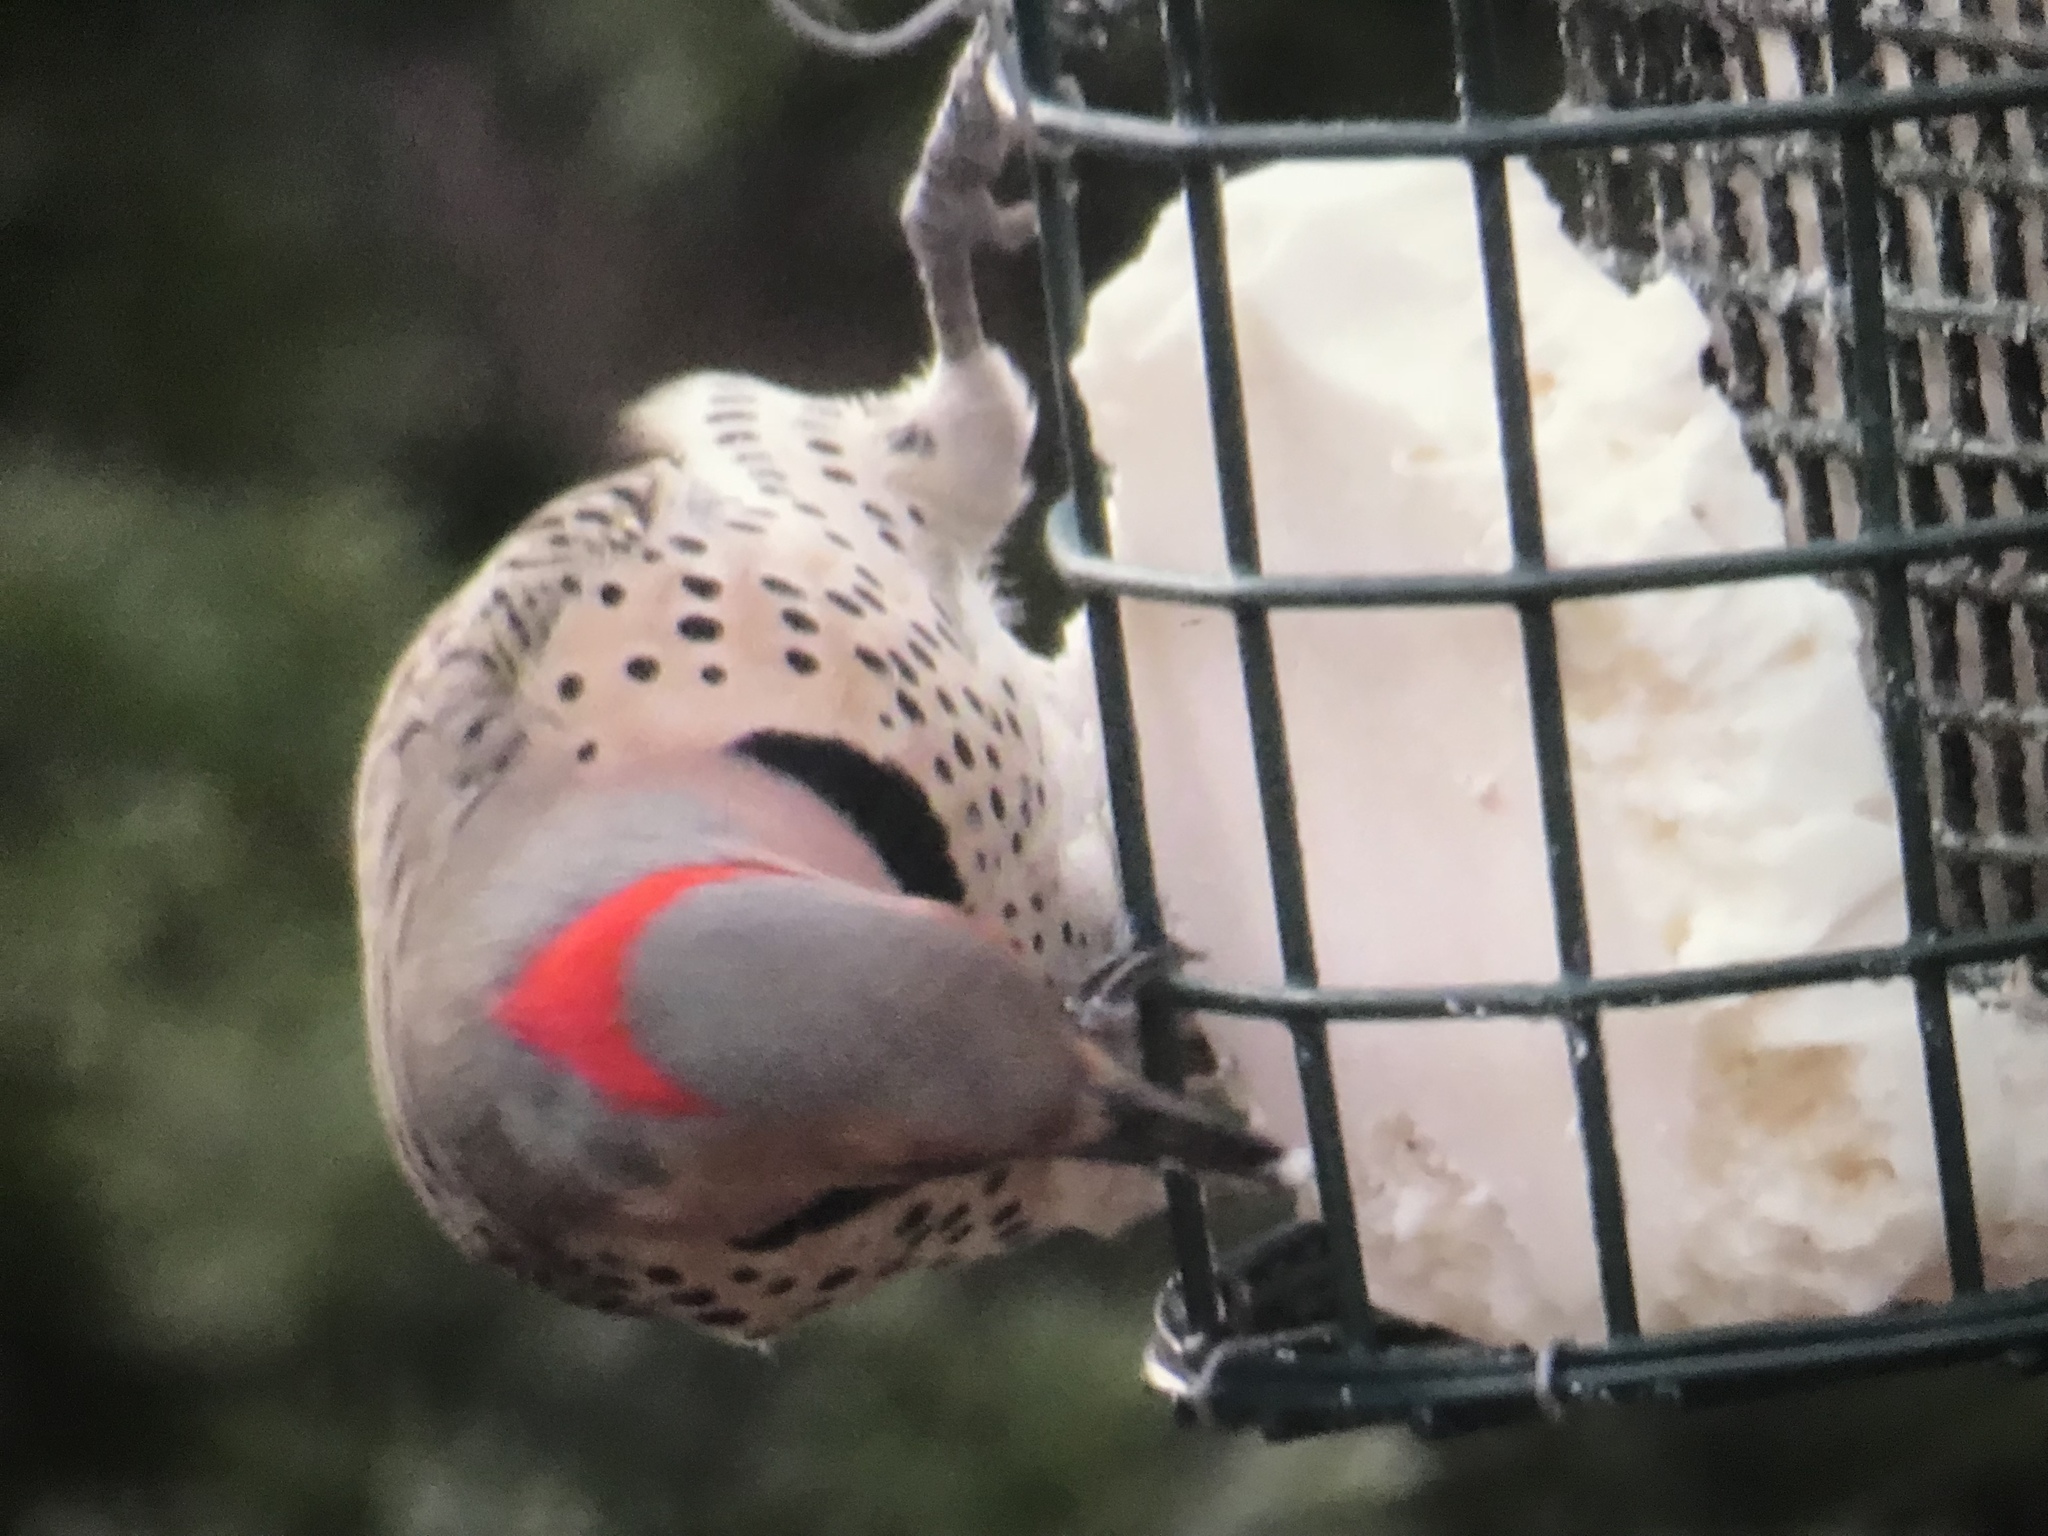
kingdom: Animalia
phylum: Chordata
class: Aves
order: Piciformes
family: Picidae
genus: Colaptes
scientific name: Colaptes auratus
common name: Northern flicker
